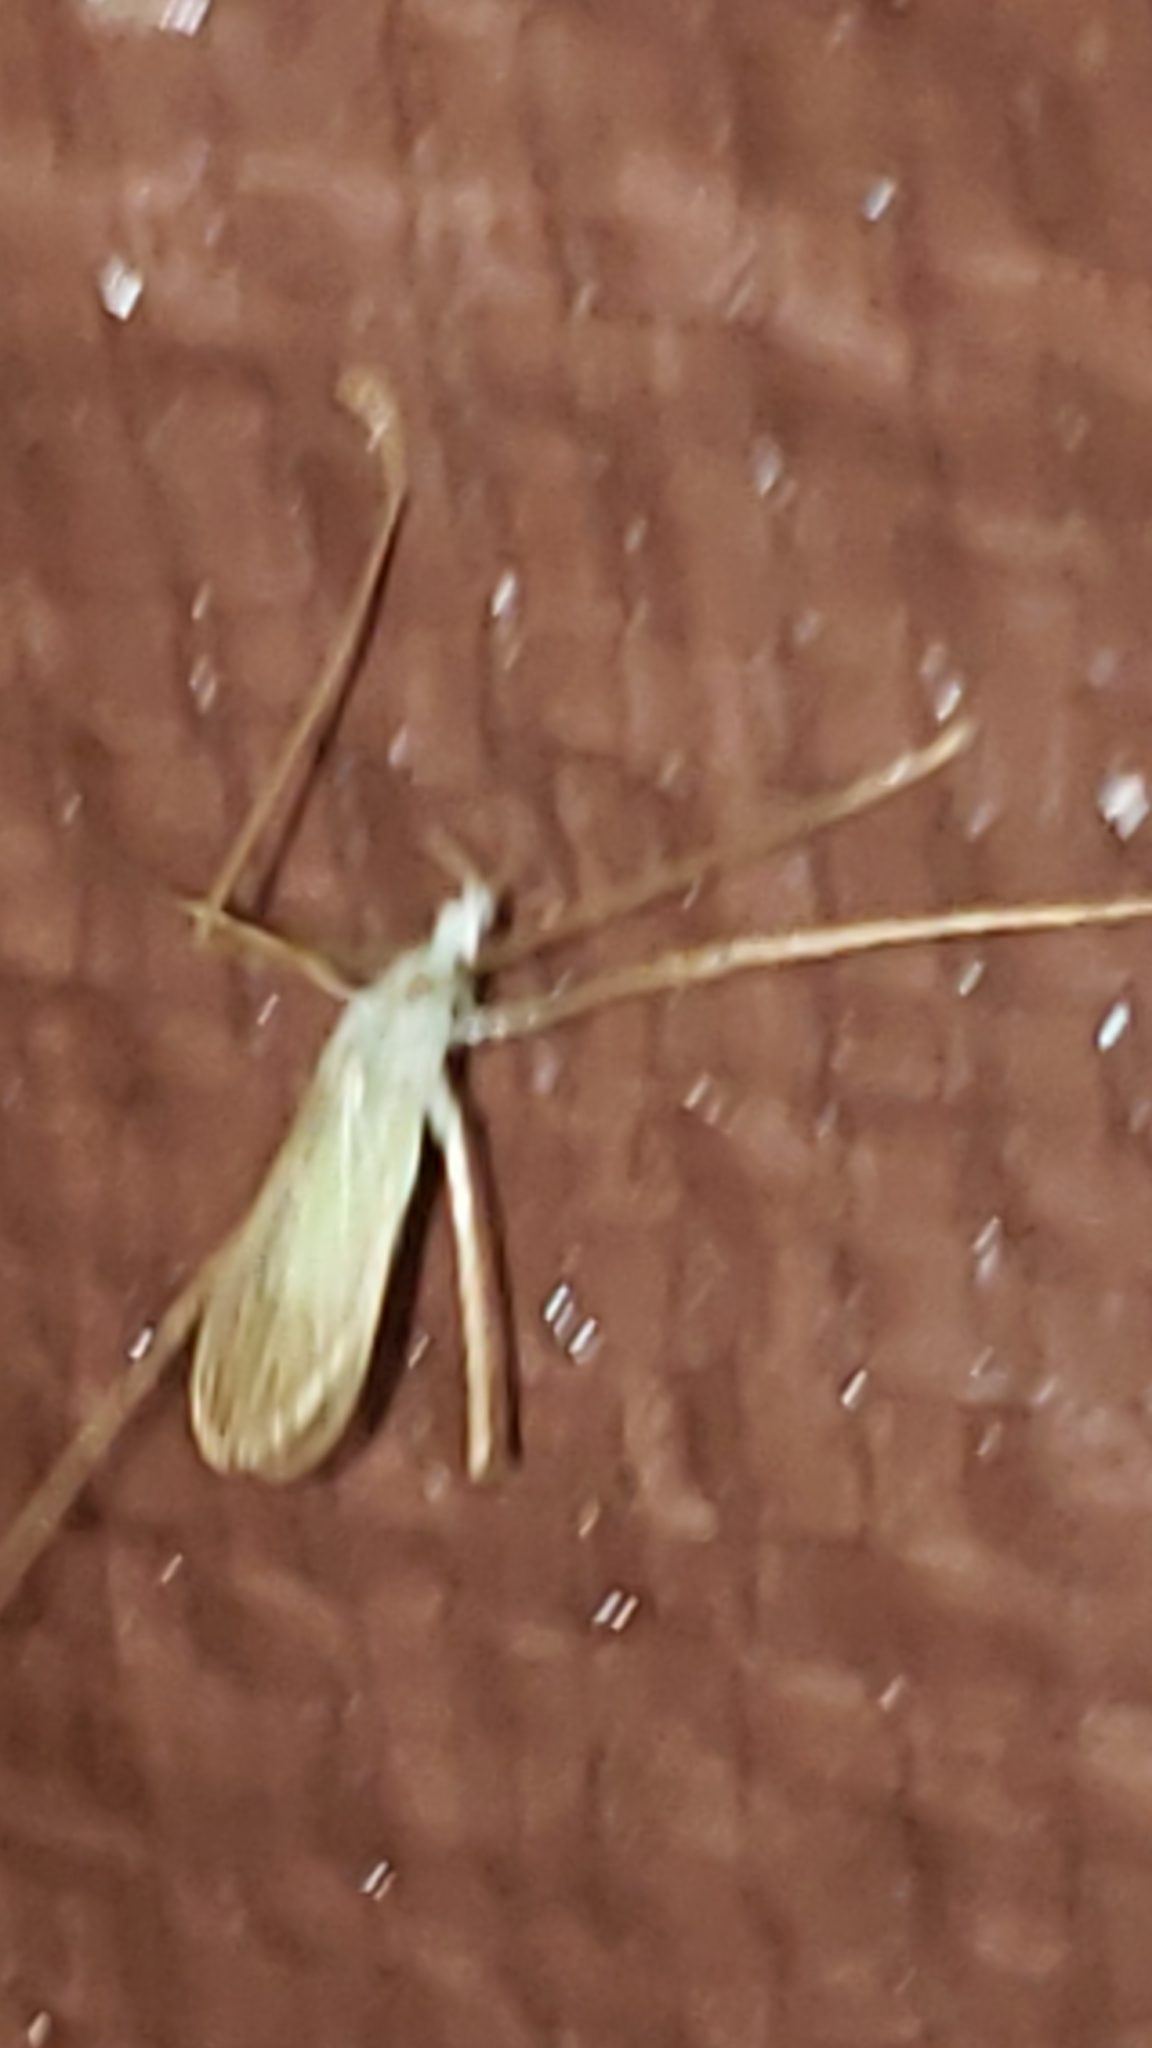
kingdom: Animalia
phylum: Arthropoda
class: Insecta
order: Diptera
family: Limoniidae
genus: Erioptera
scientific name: Erioptera
